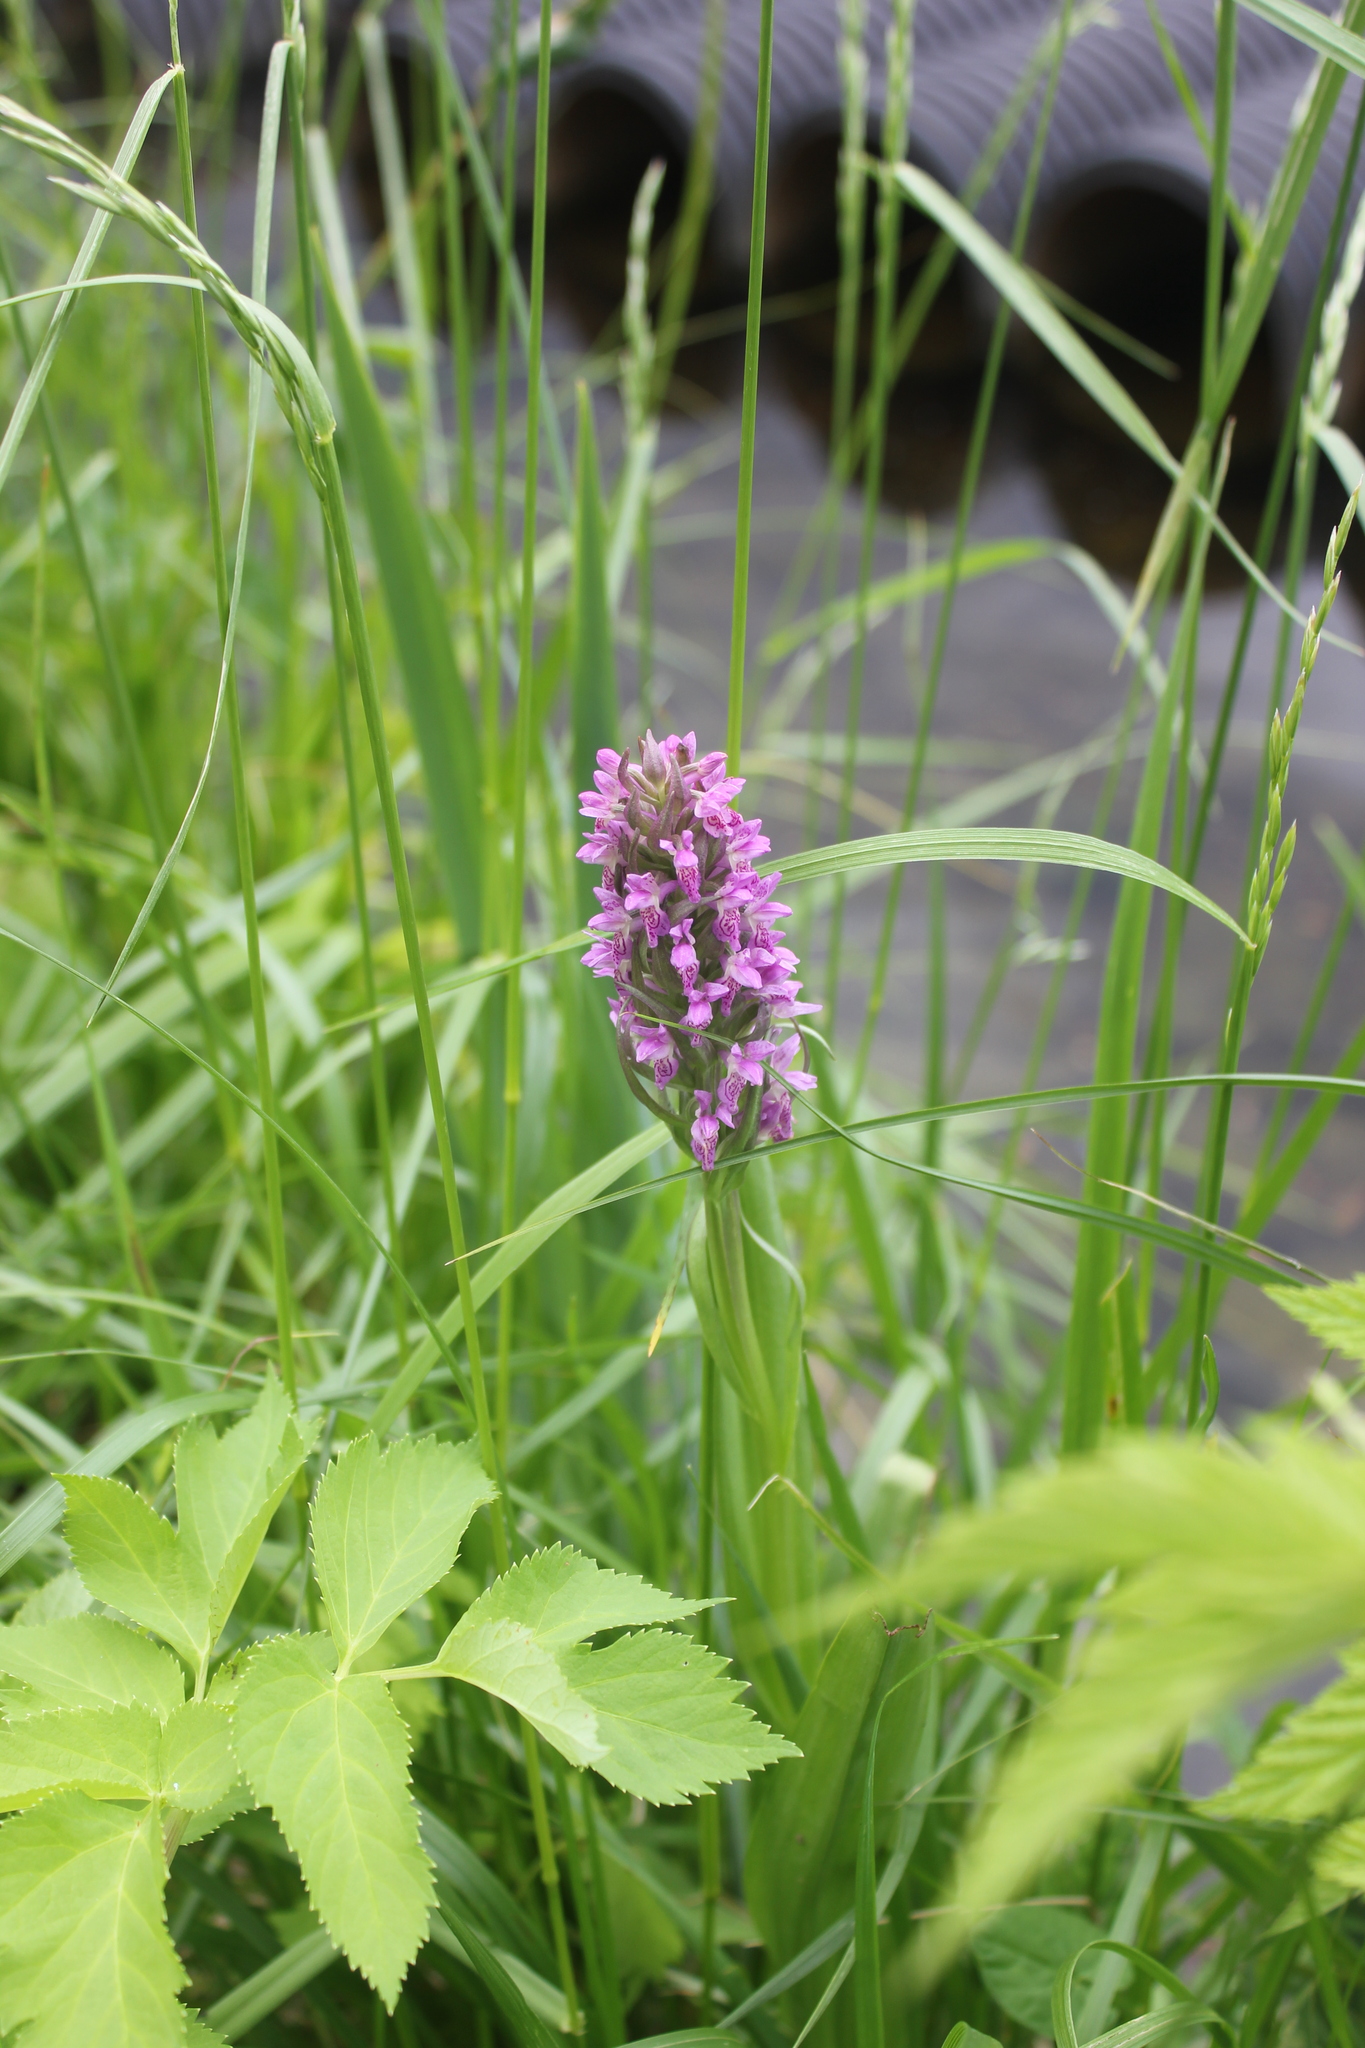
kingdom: Plantae
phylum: Tracheophyta
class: Liliopsida
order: Asparagales
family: Orchidaceae
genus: Dactylorhiza
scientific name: Dactylorhiza incarnata
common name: Early marsh-orchid
